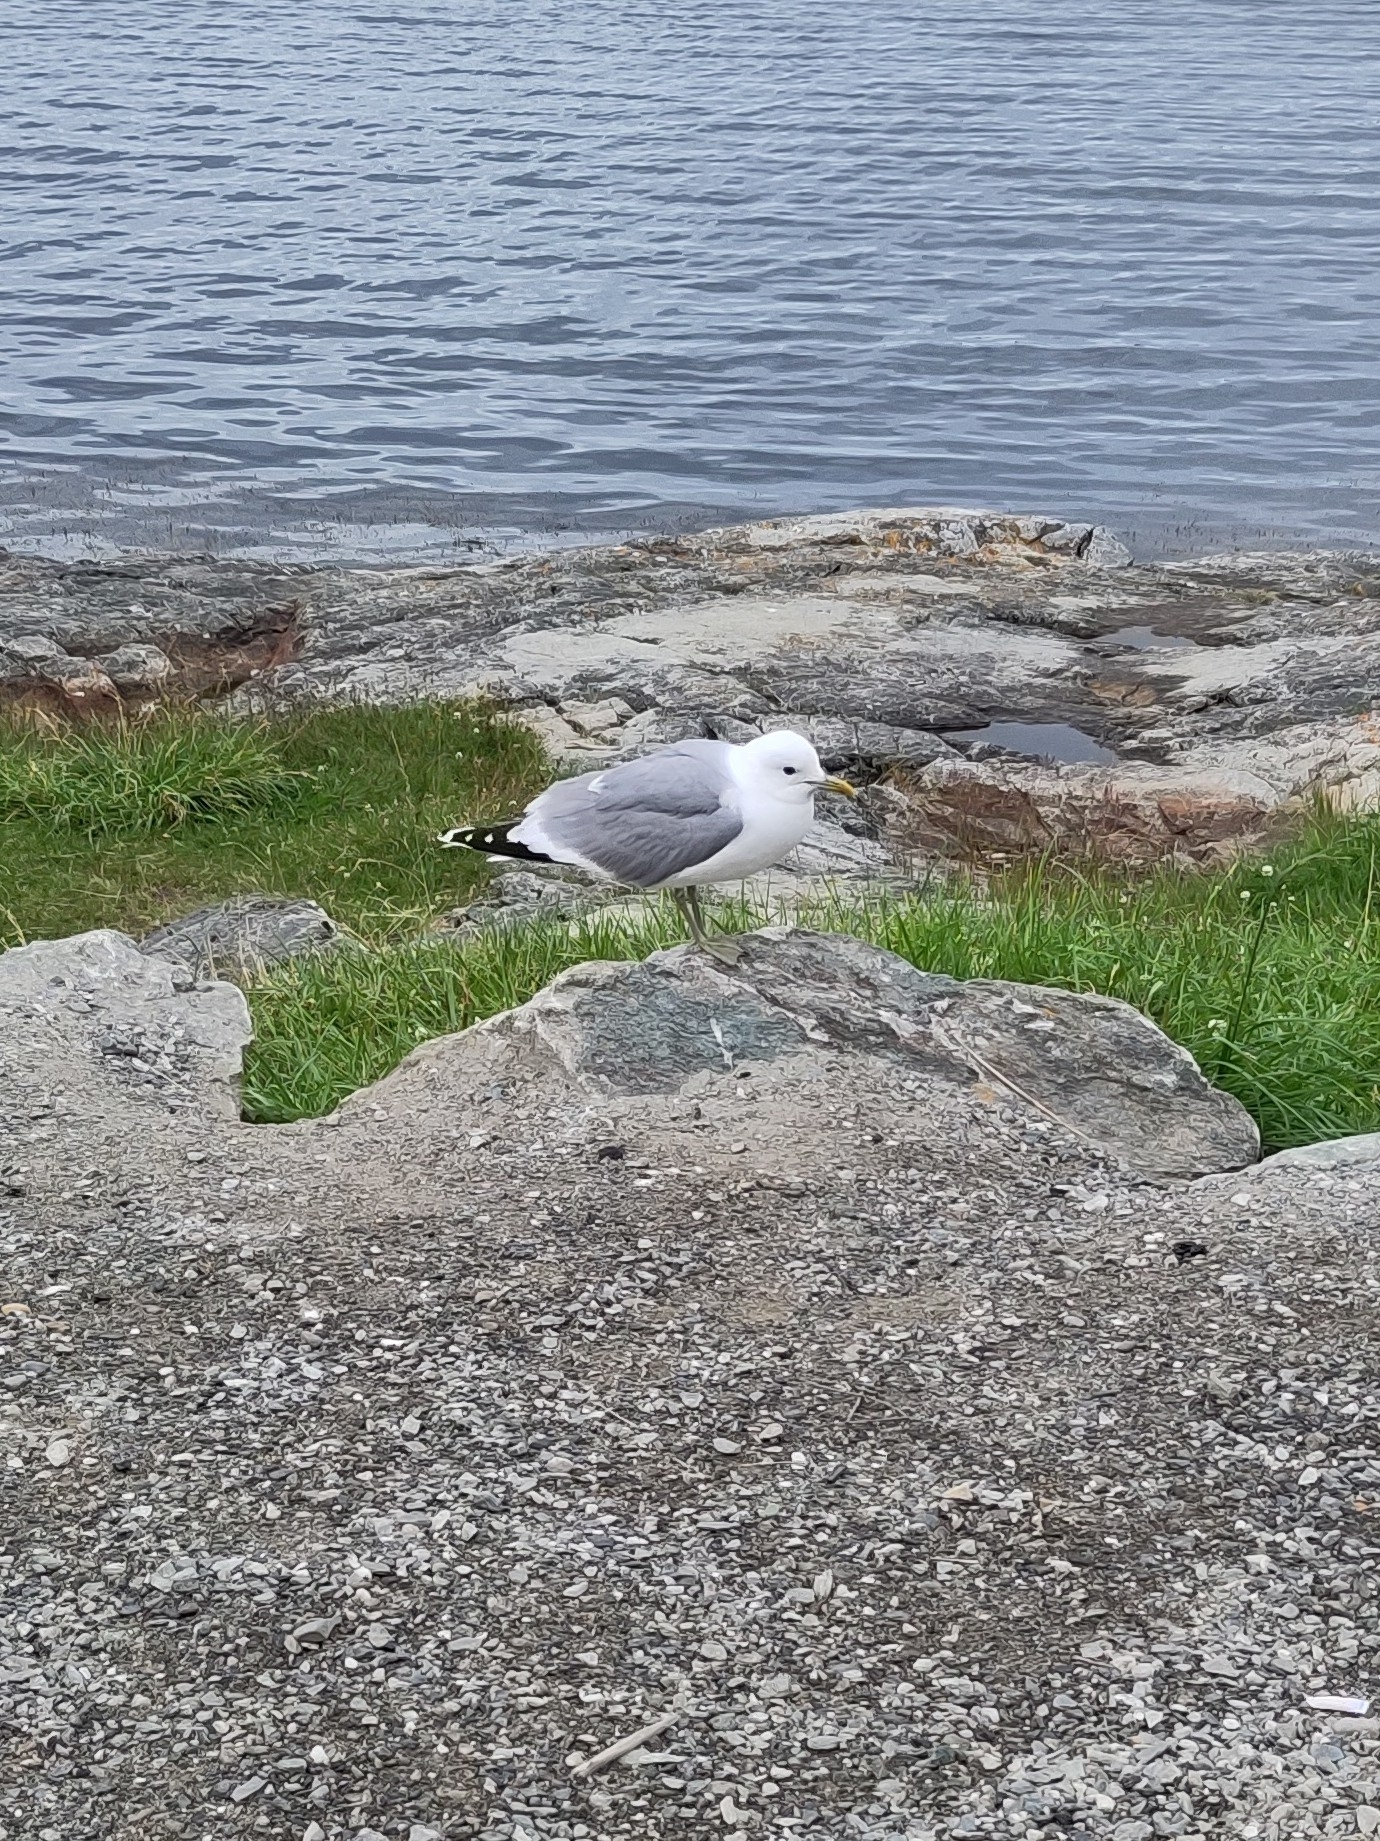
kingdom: Animalia
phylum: Chordata
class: Aves
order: Charadriiformes
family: Laridae
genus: Larus
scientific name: Larus canus
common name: Mew gull
